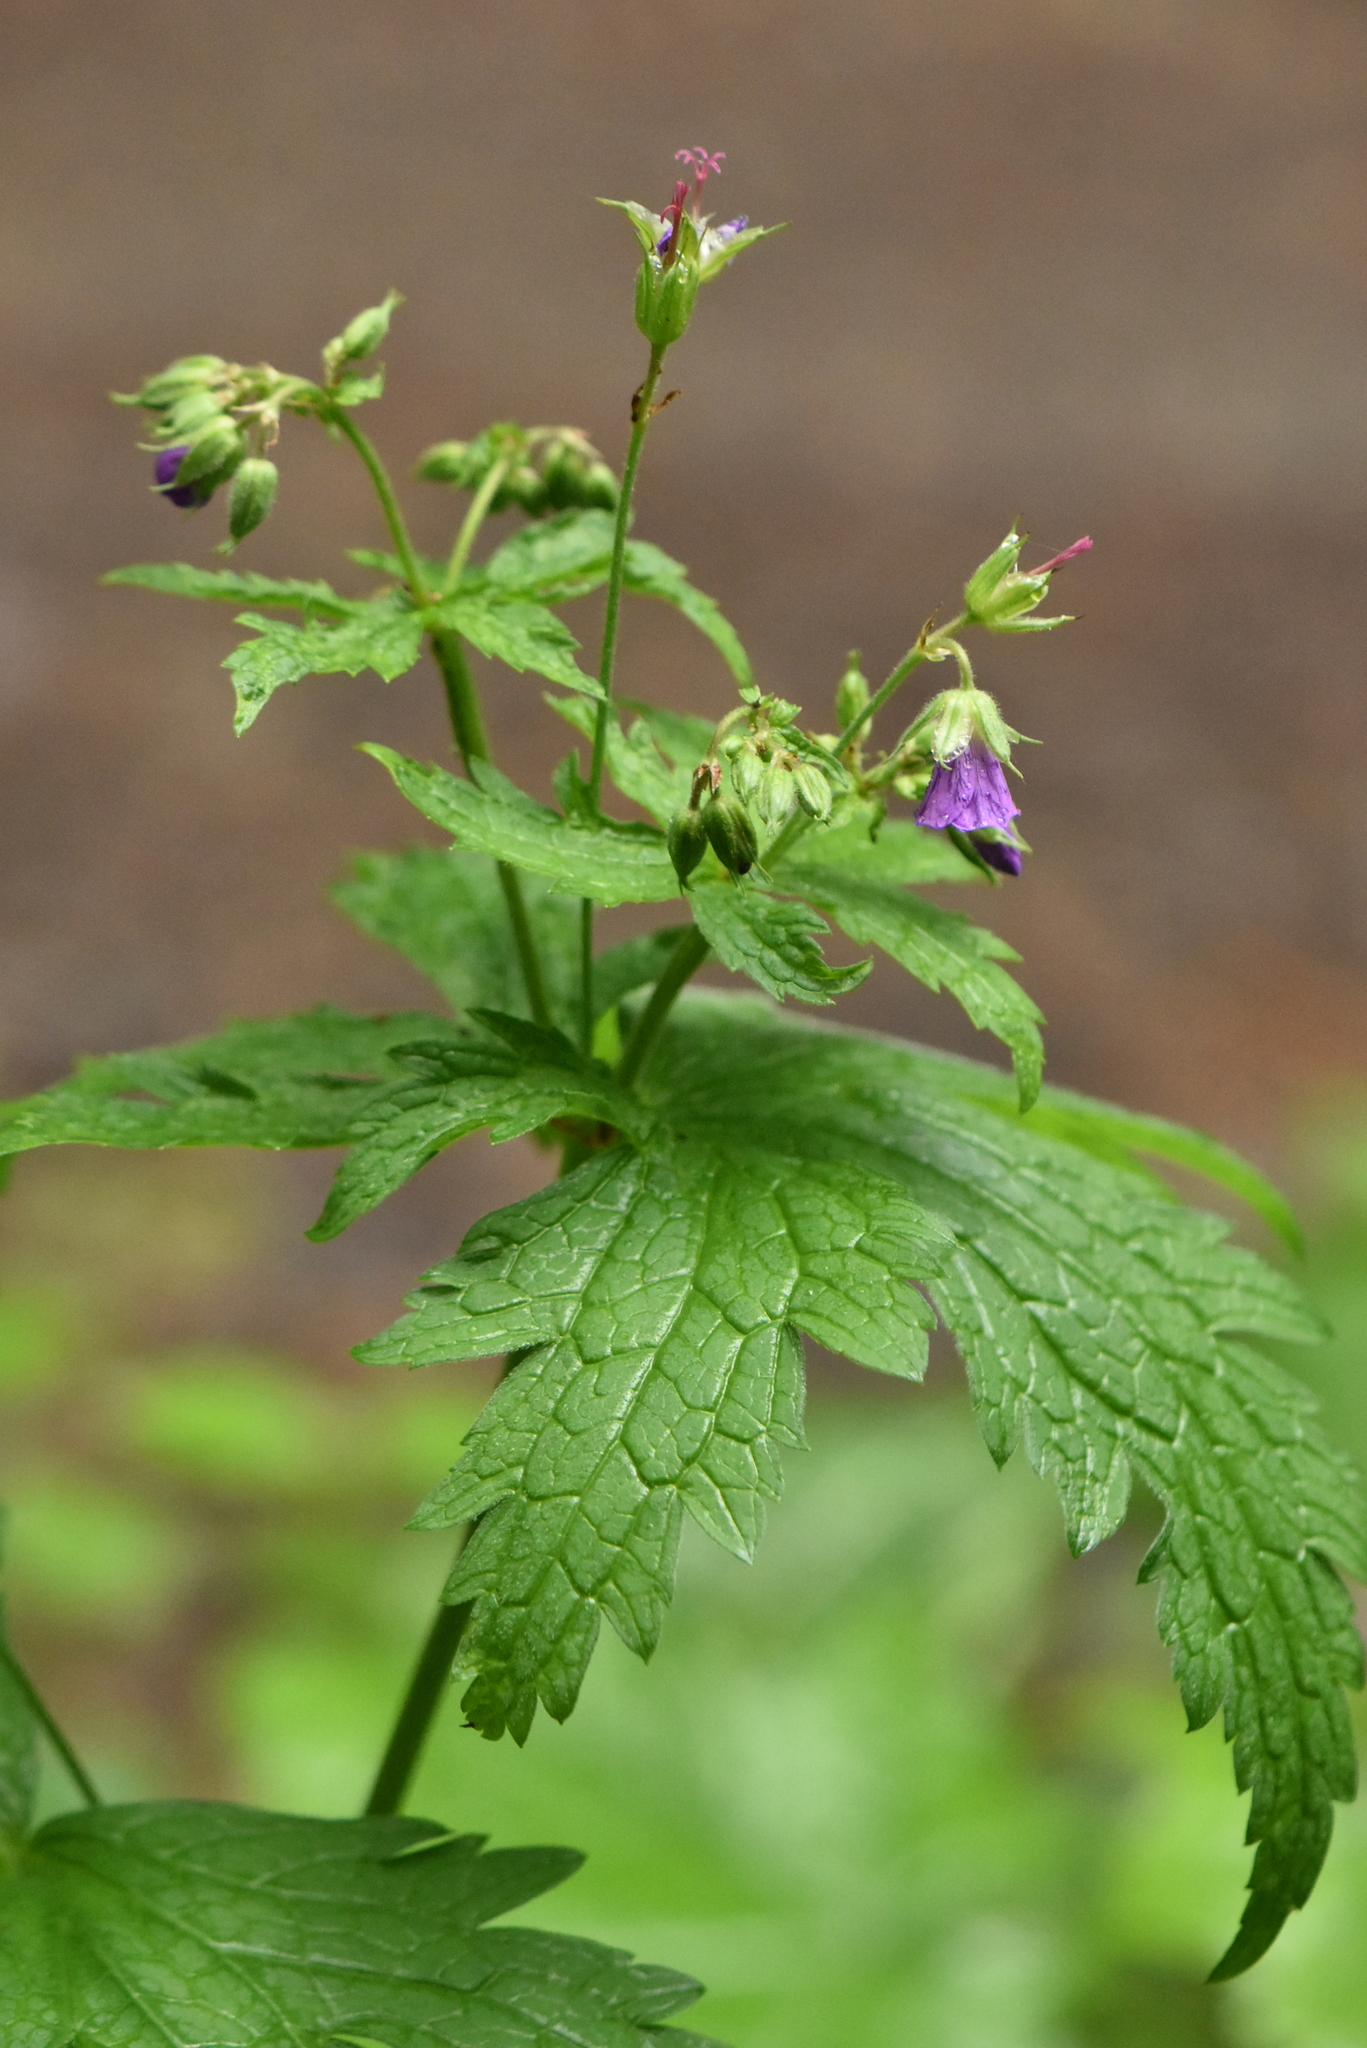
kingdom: Plantae
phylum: Tracheophyta
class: Magnoliopsida
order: Geraniales
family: Geraniaceae
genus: Geranium
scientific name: Geranium sylvaticum
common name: Wood crane's-bill
